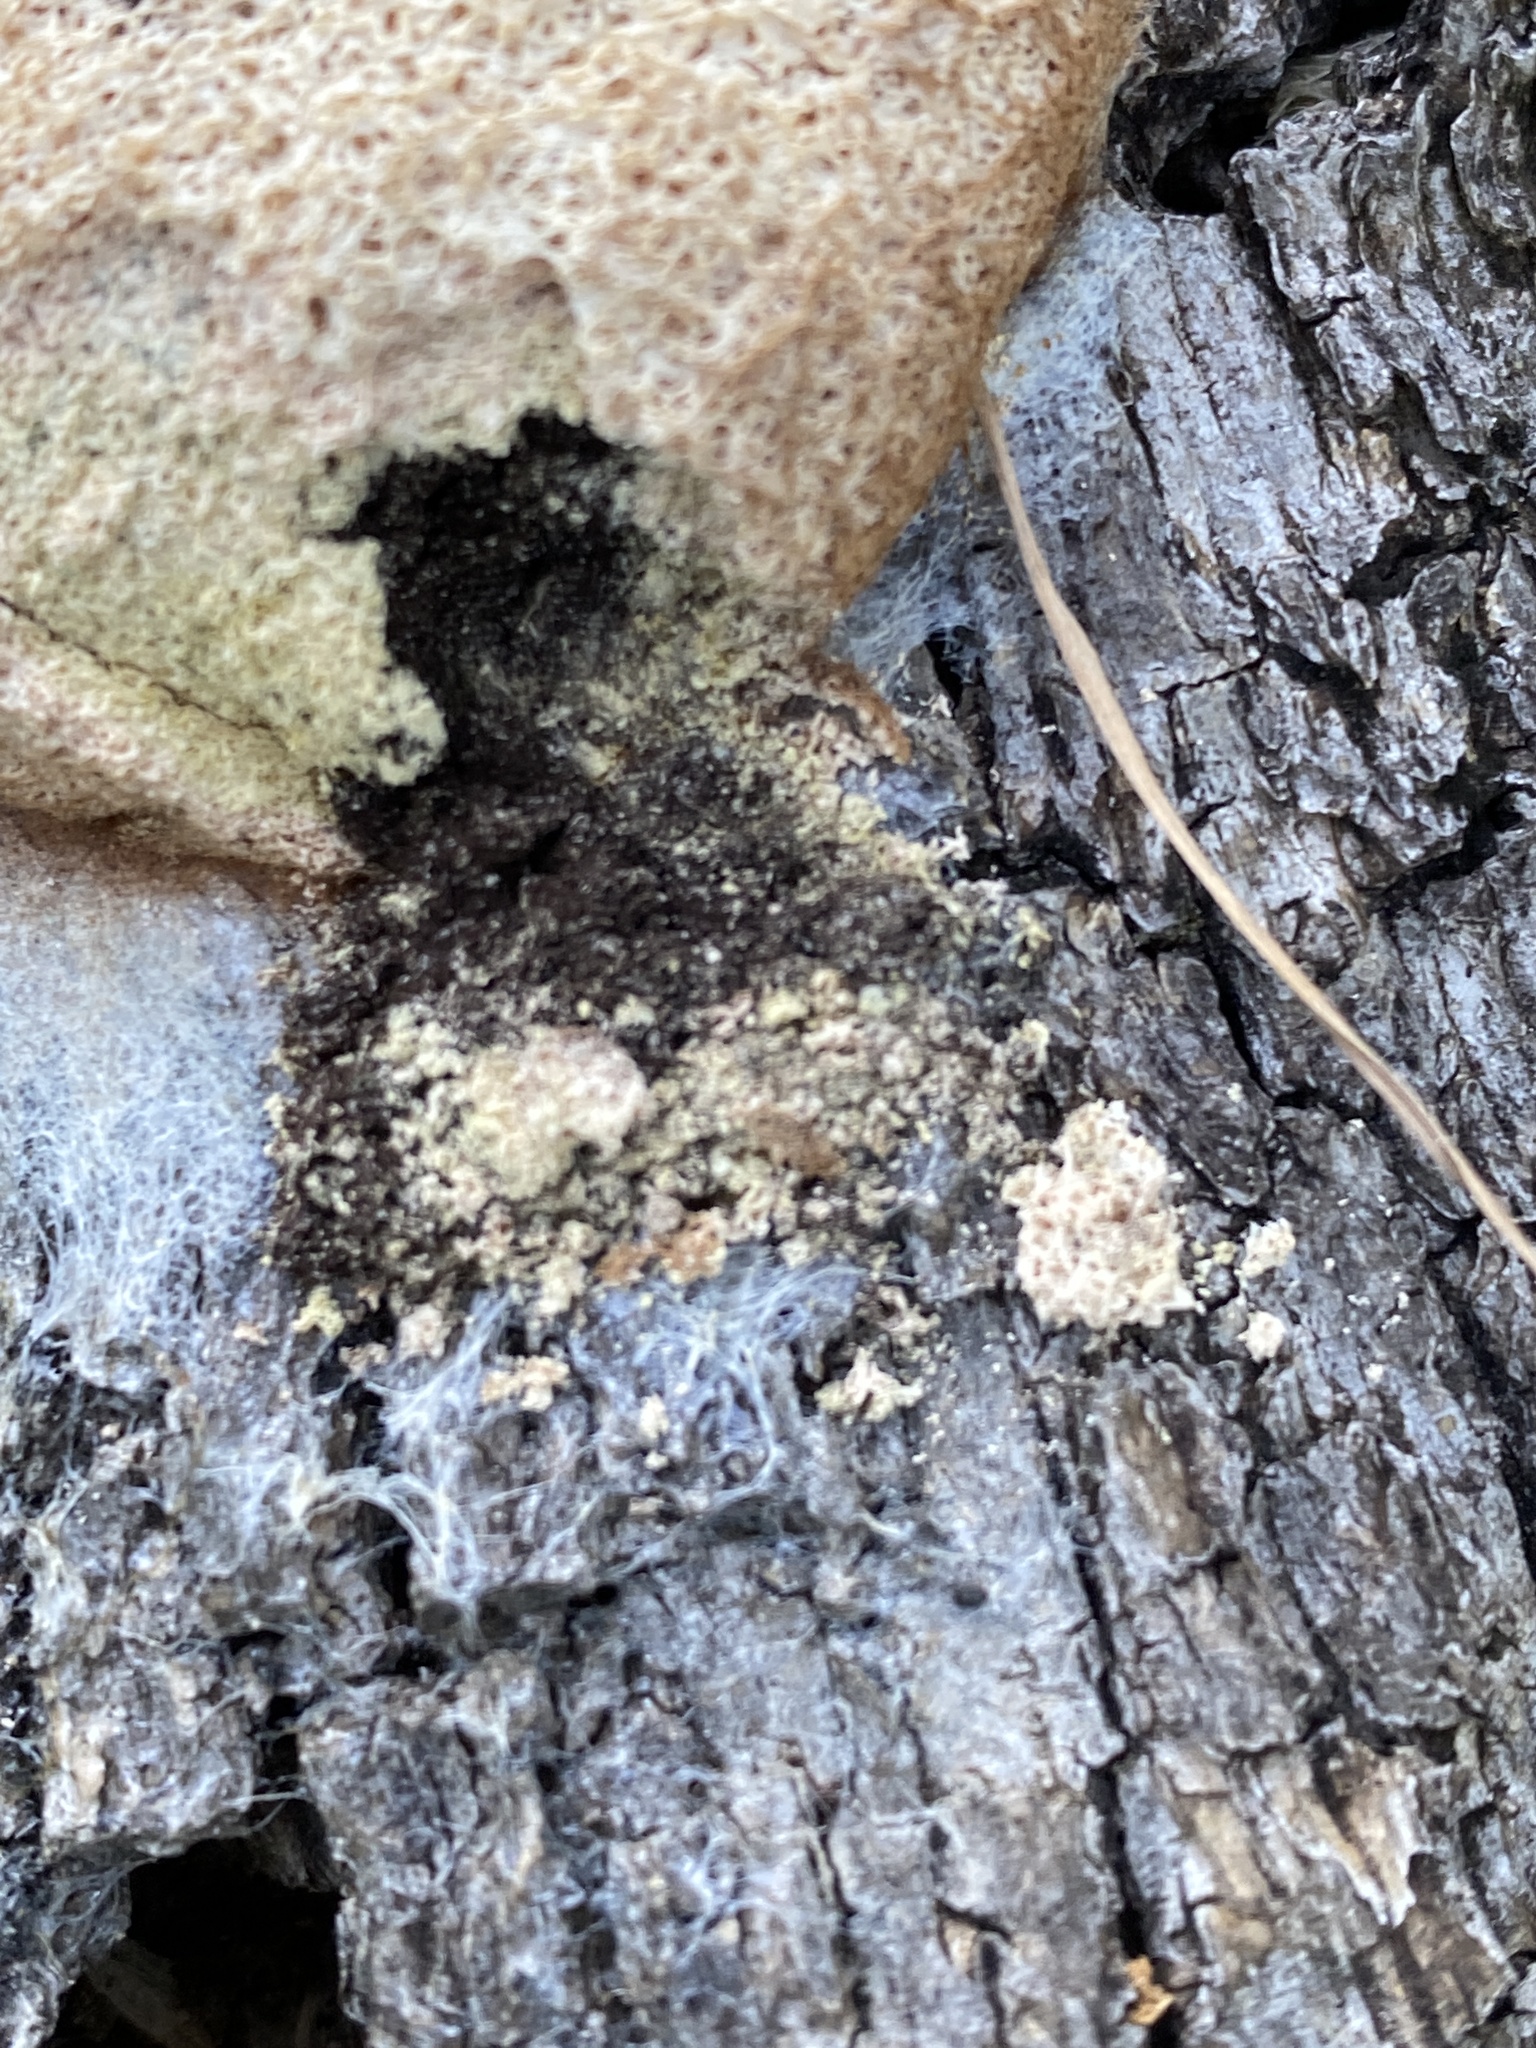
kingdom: Protozoa
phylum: Mycetozoa
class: Myxomycetes
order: Physarales
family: Physaraceae
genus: Fuligo
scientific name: Fuligo septica
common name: Dog vomit slime mold
